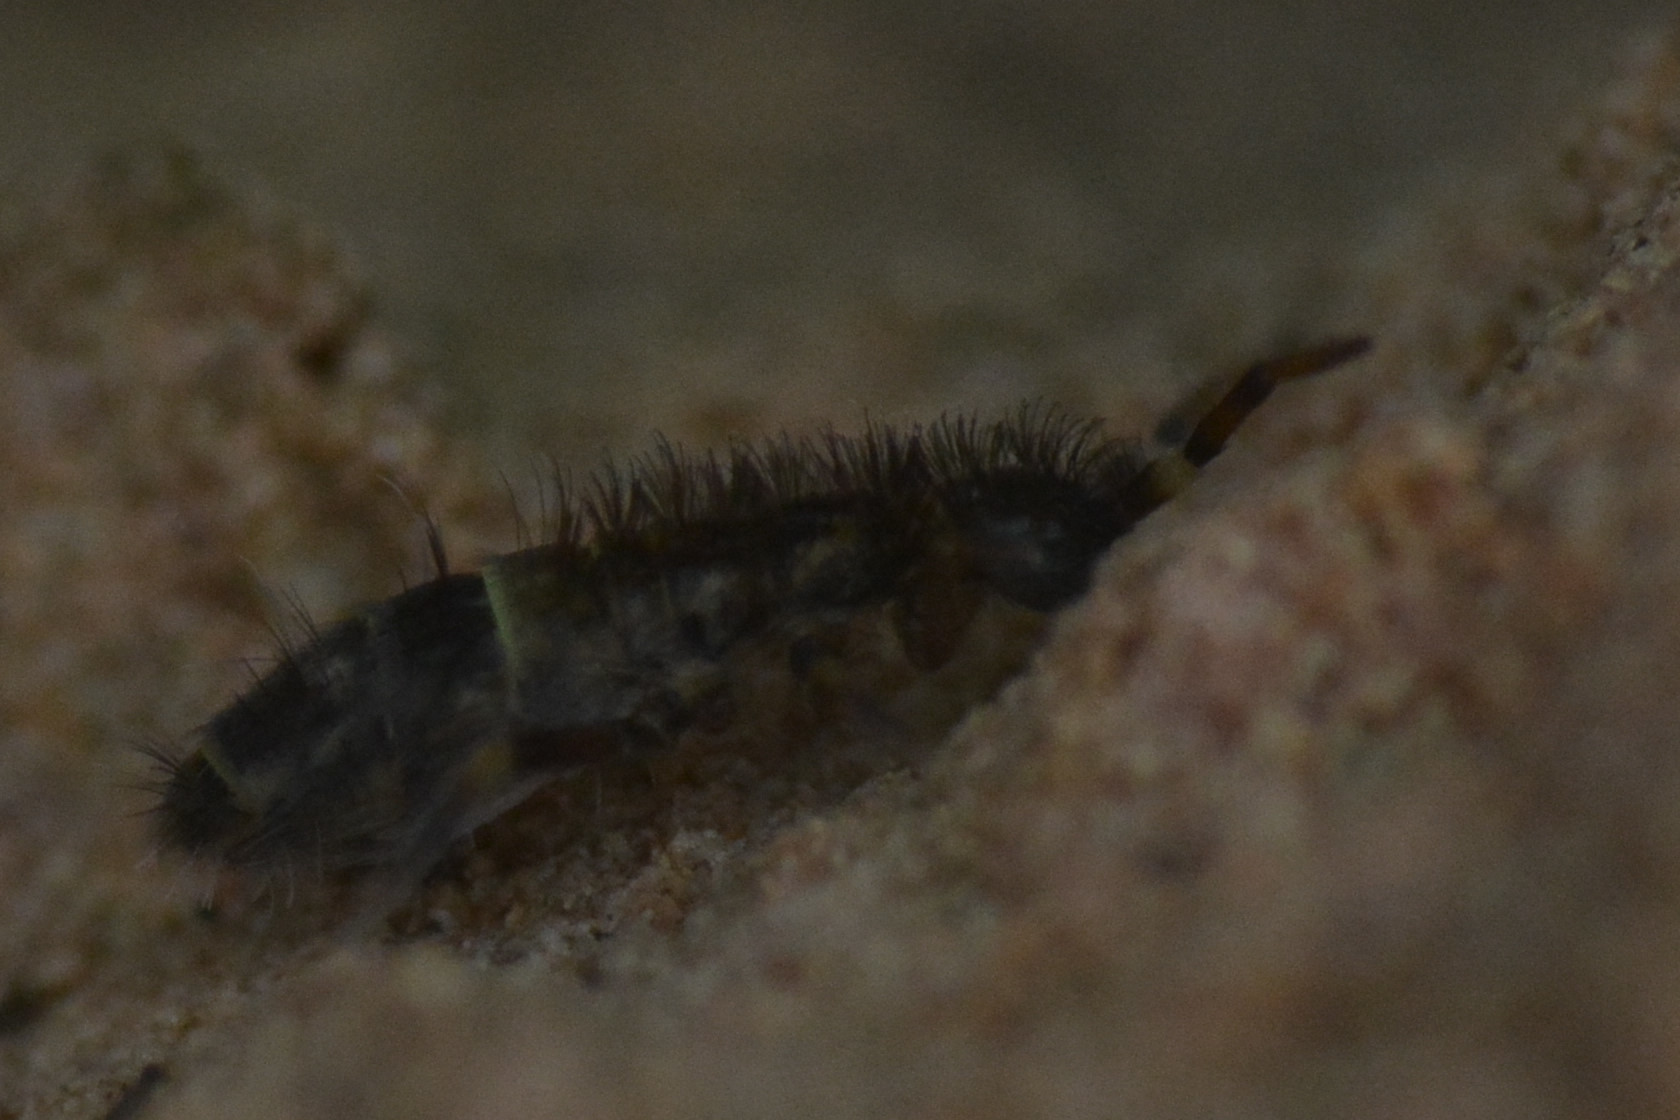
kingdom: Animalia
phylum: Arthropoda
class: Collembola
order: Entomobryomorpha
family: Orchesellidae
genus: Orchesella
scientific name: Orchesella cincta
